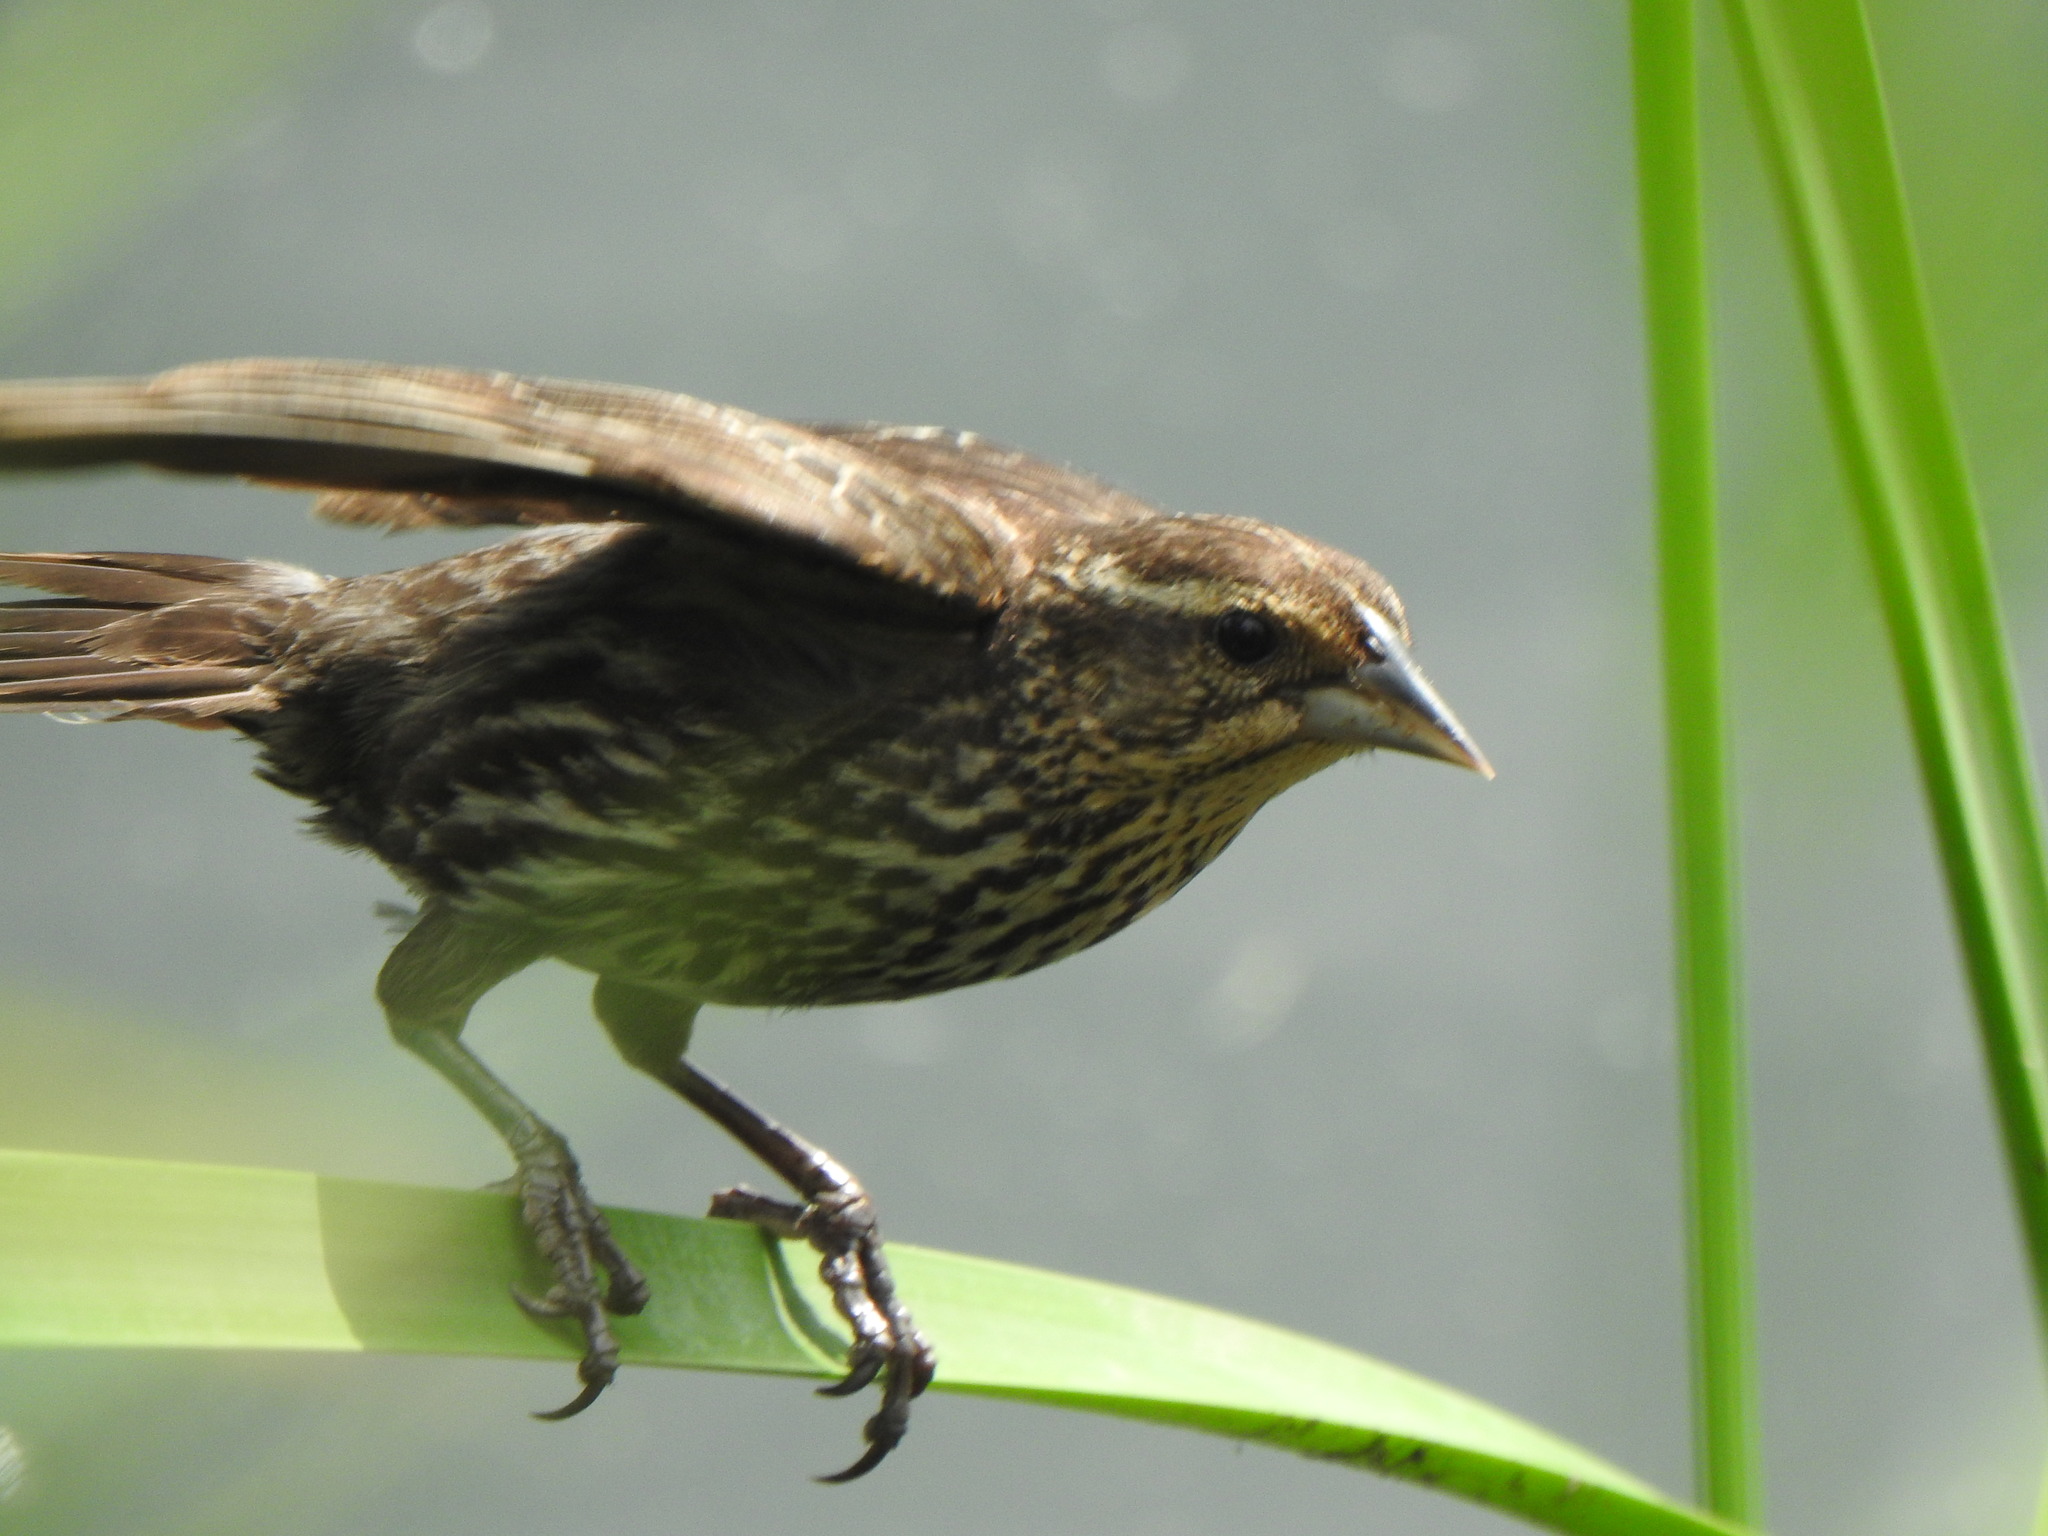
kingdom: Animalia
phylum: Chordata
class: Aves
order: Passeriformes
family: Icteridae
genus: Agelaius
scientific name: Agelaius phoeniceus
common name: Red-winged blackbird
